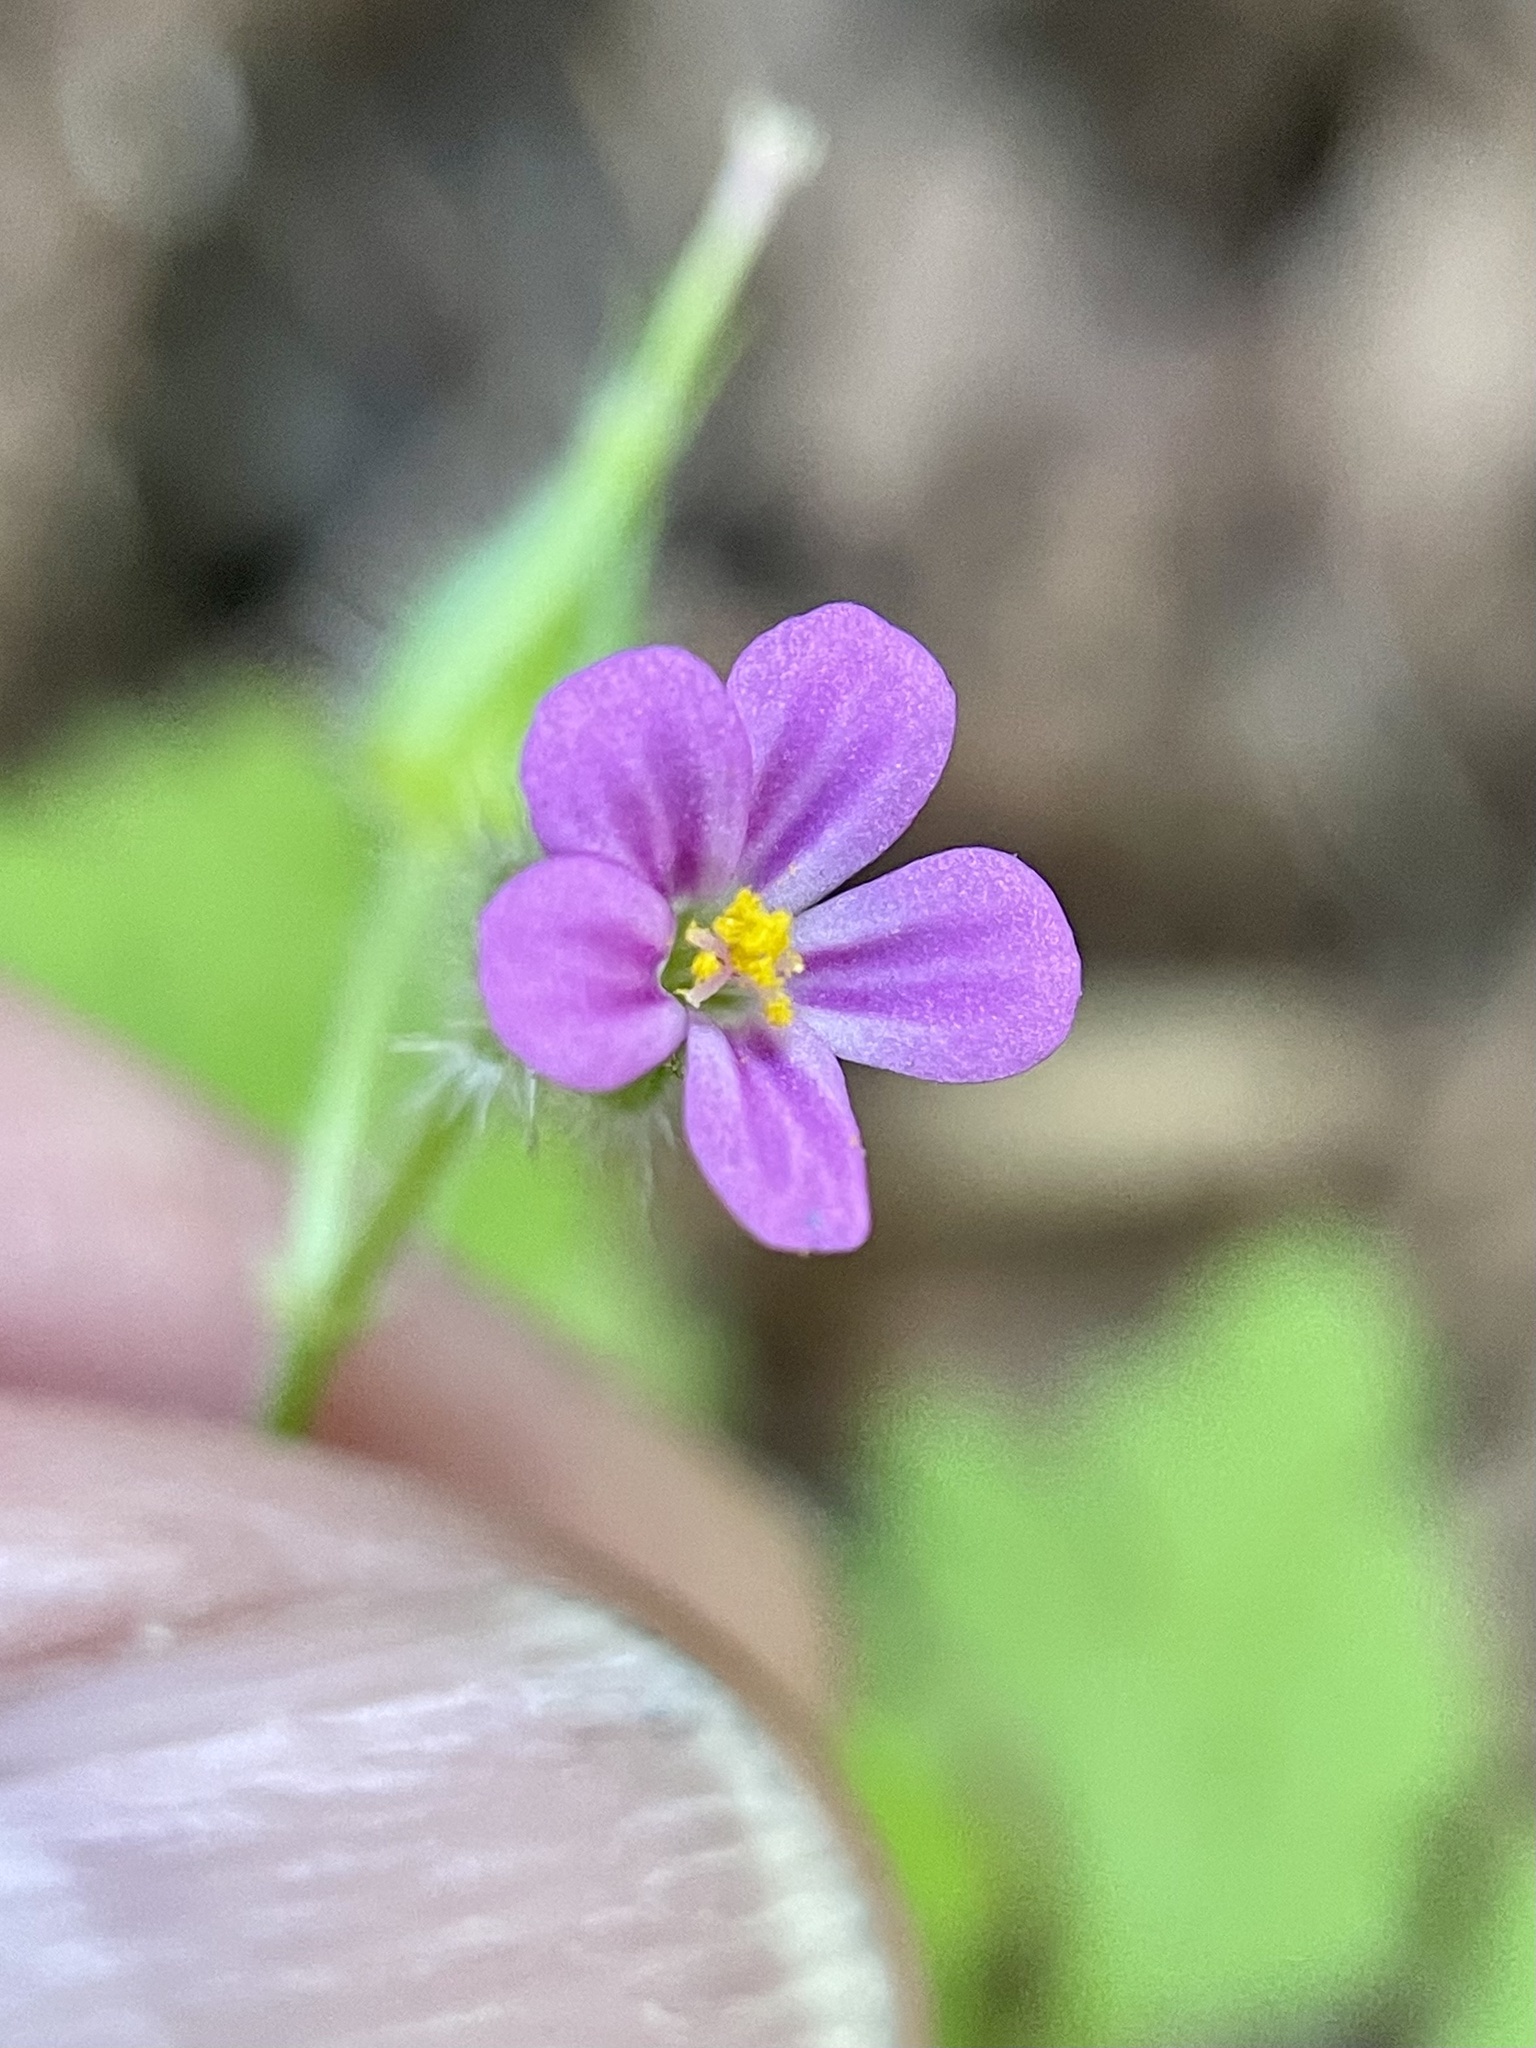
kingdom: Plantae
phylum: Tracheophyta
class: Magnoliopsida
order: Geraniales
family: Geraniaceae
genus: Geranium
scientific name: Geranium purpureum
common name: Little-robin
